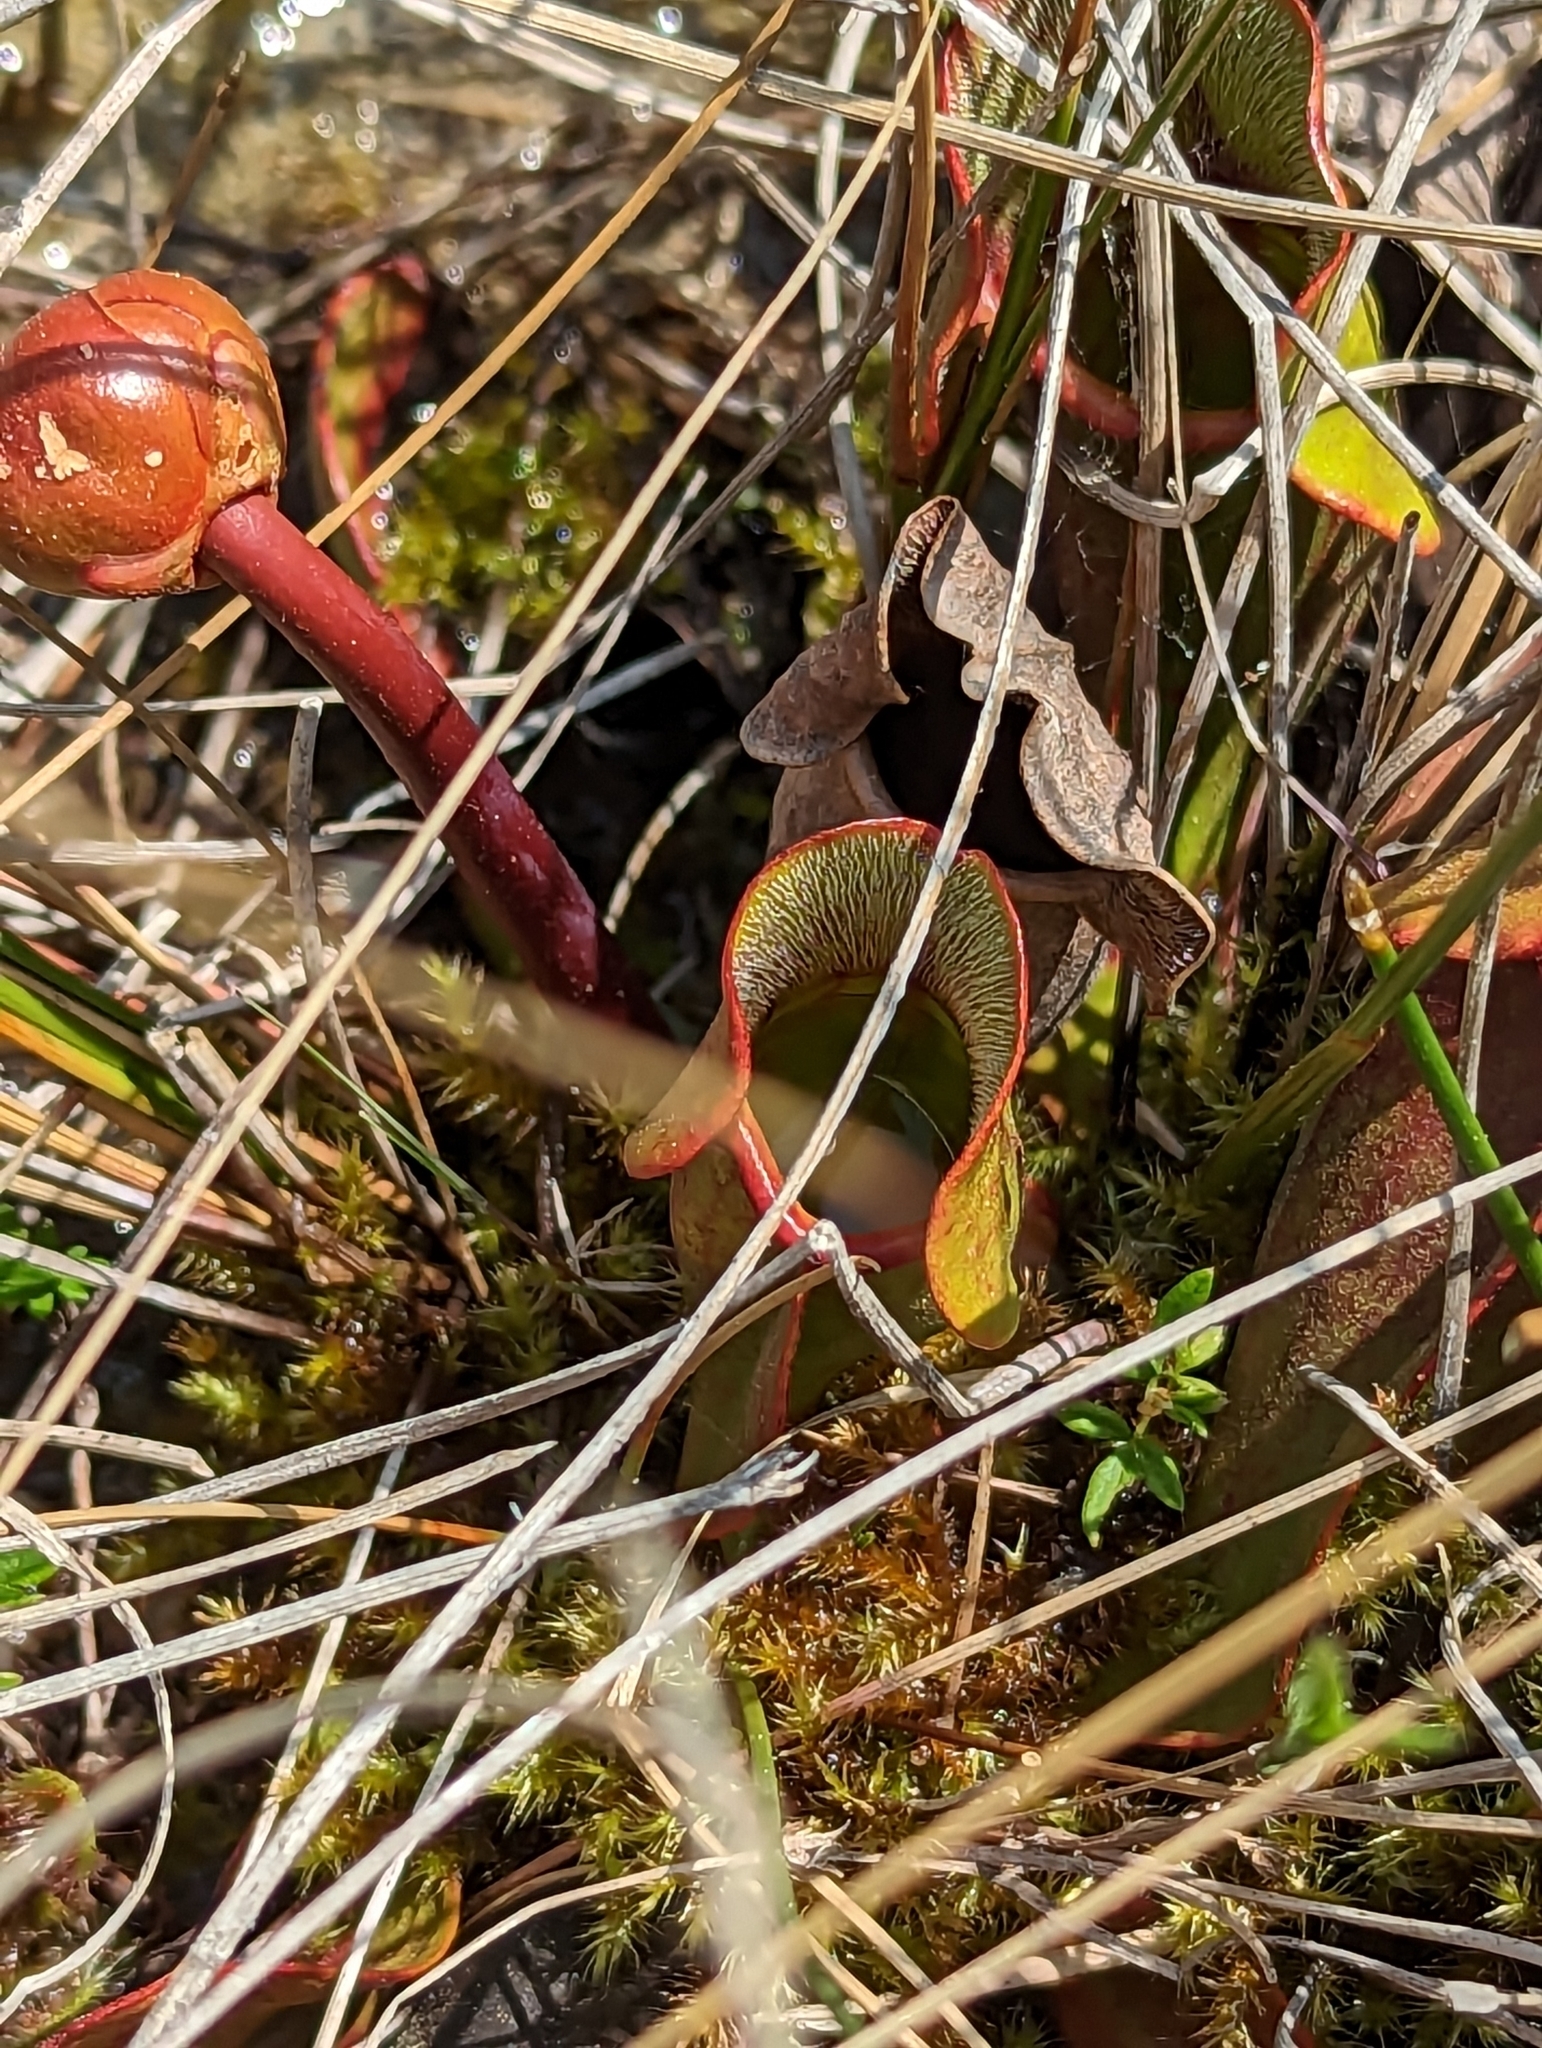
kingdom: Plantae
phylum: Tracheophyta
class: Magnoliopsida
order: Ericales
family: Sarraceniaceae
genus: Sarracenia
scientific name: Sarracenia purpurea
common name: Pitcherplant
